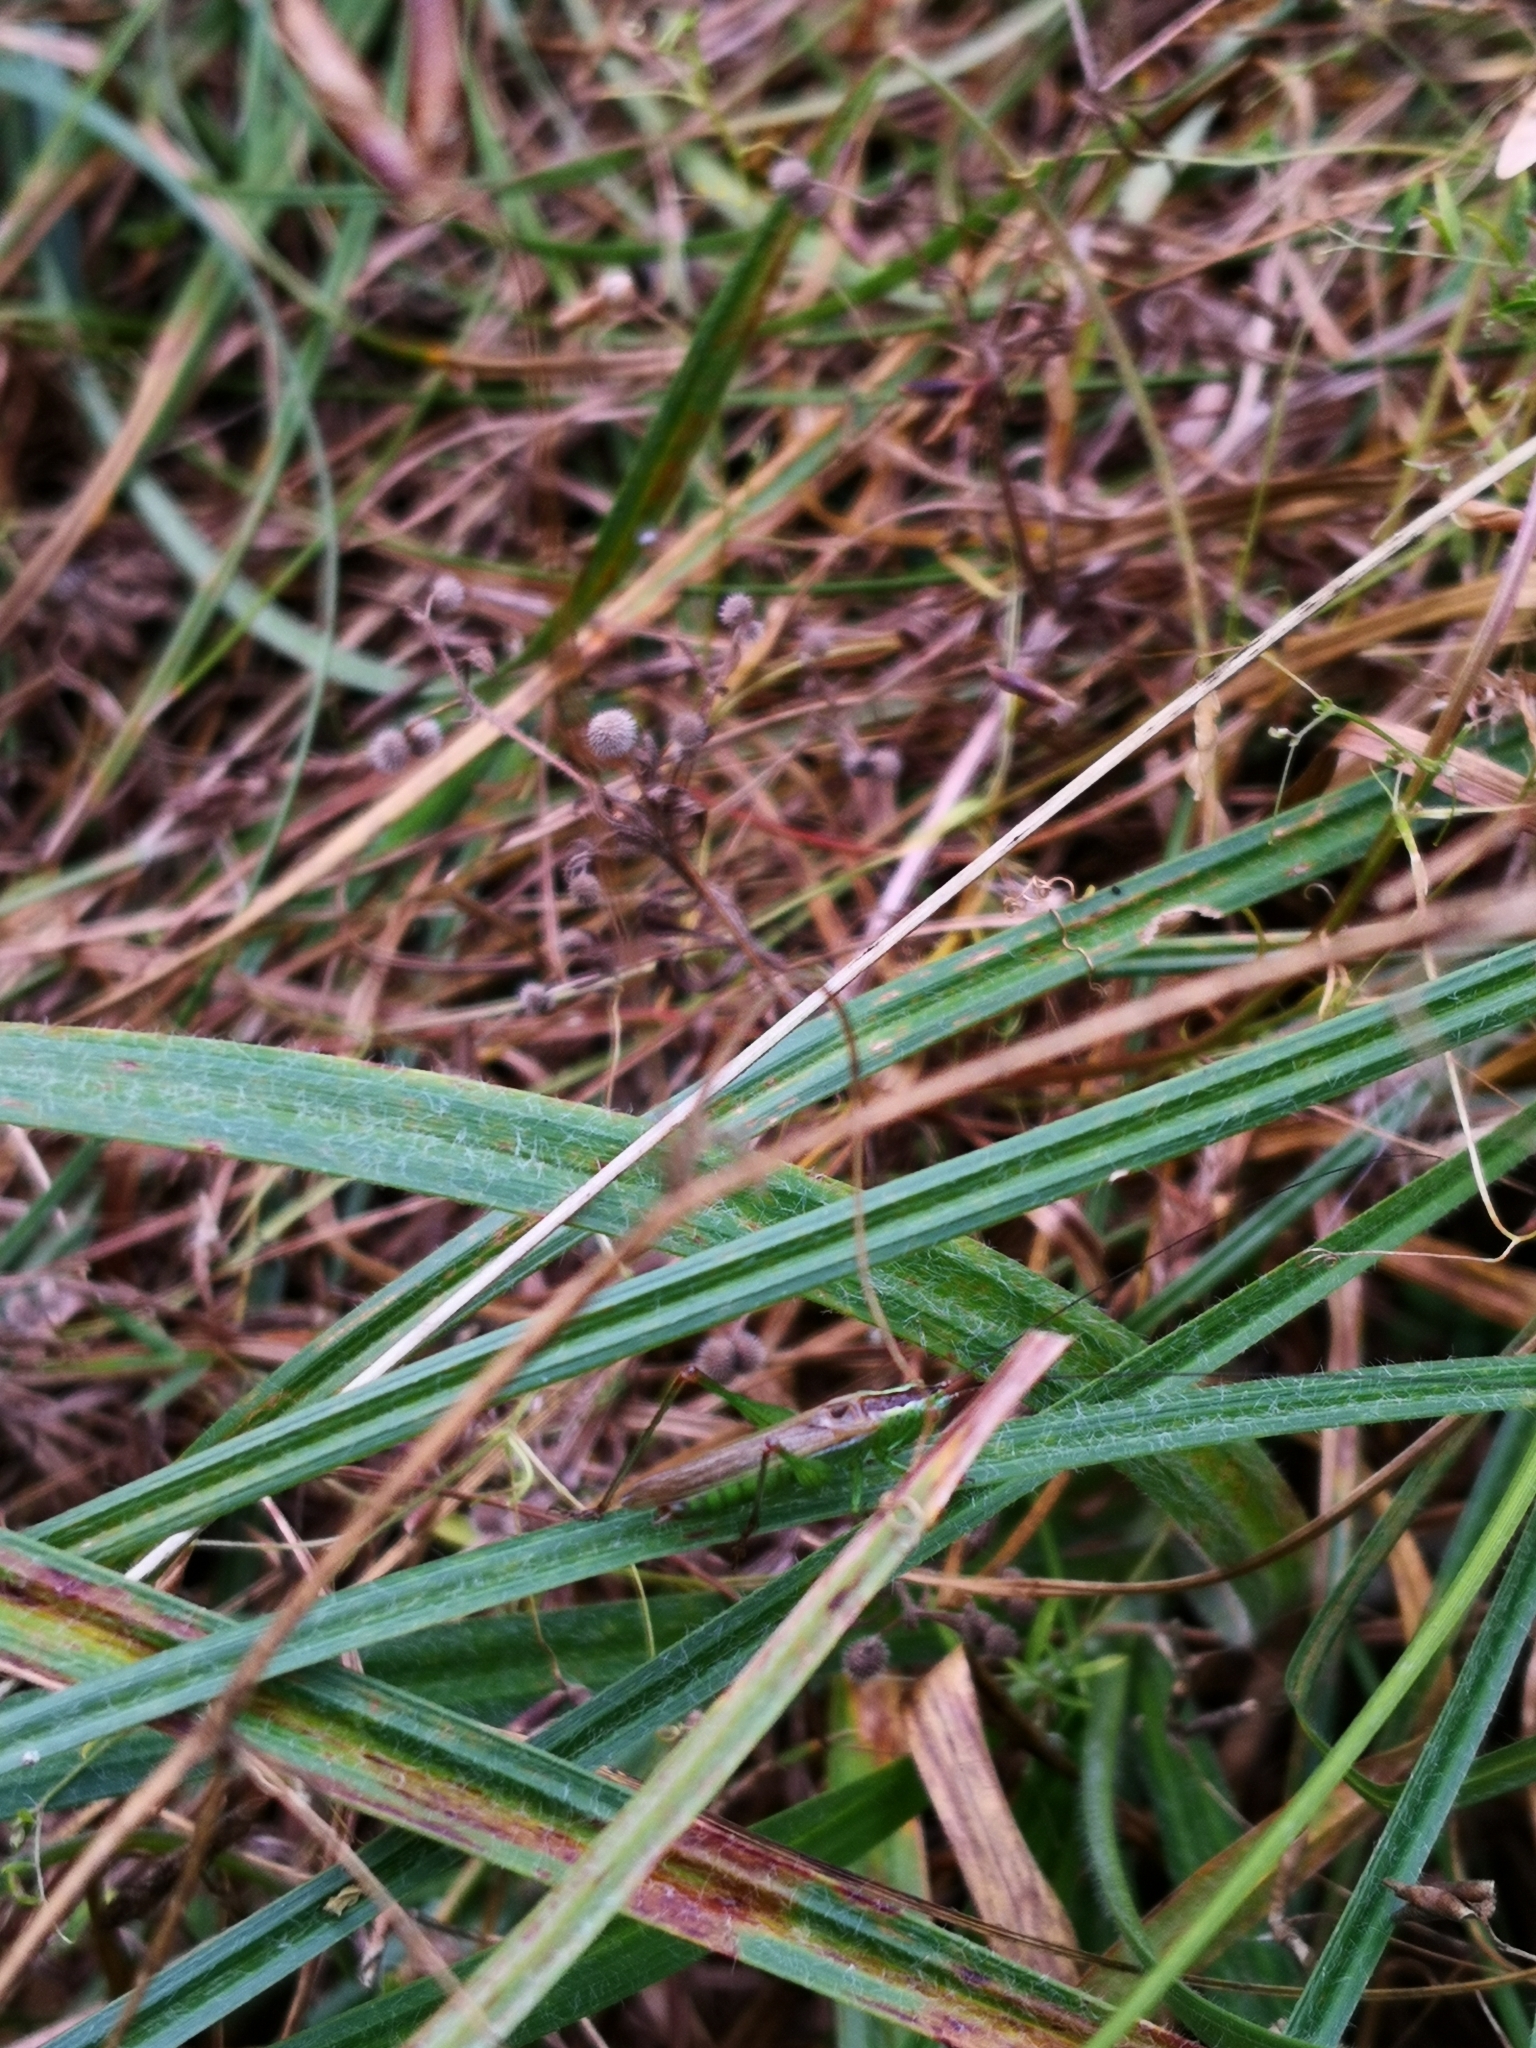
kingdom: Animalia
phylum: Arthropoda
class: Insecta
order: Orthoptera
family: Tettigoniidae
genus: Conocephalus
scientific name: Conocephalus fuscus
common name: Long-winged conehead
